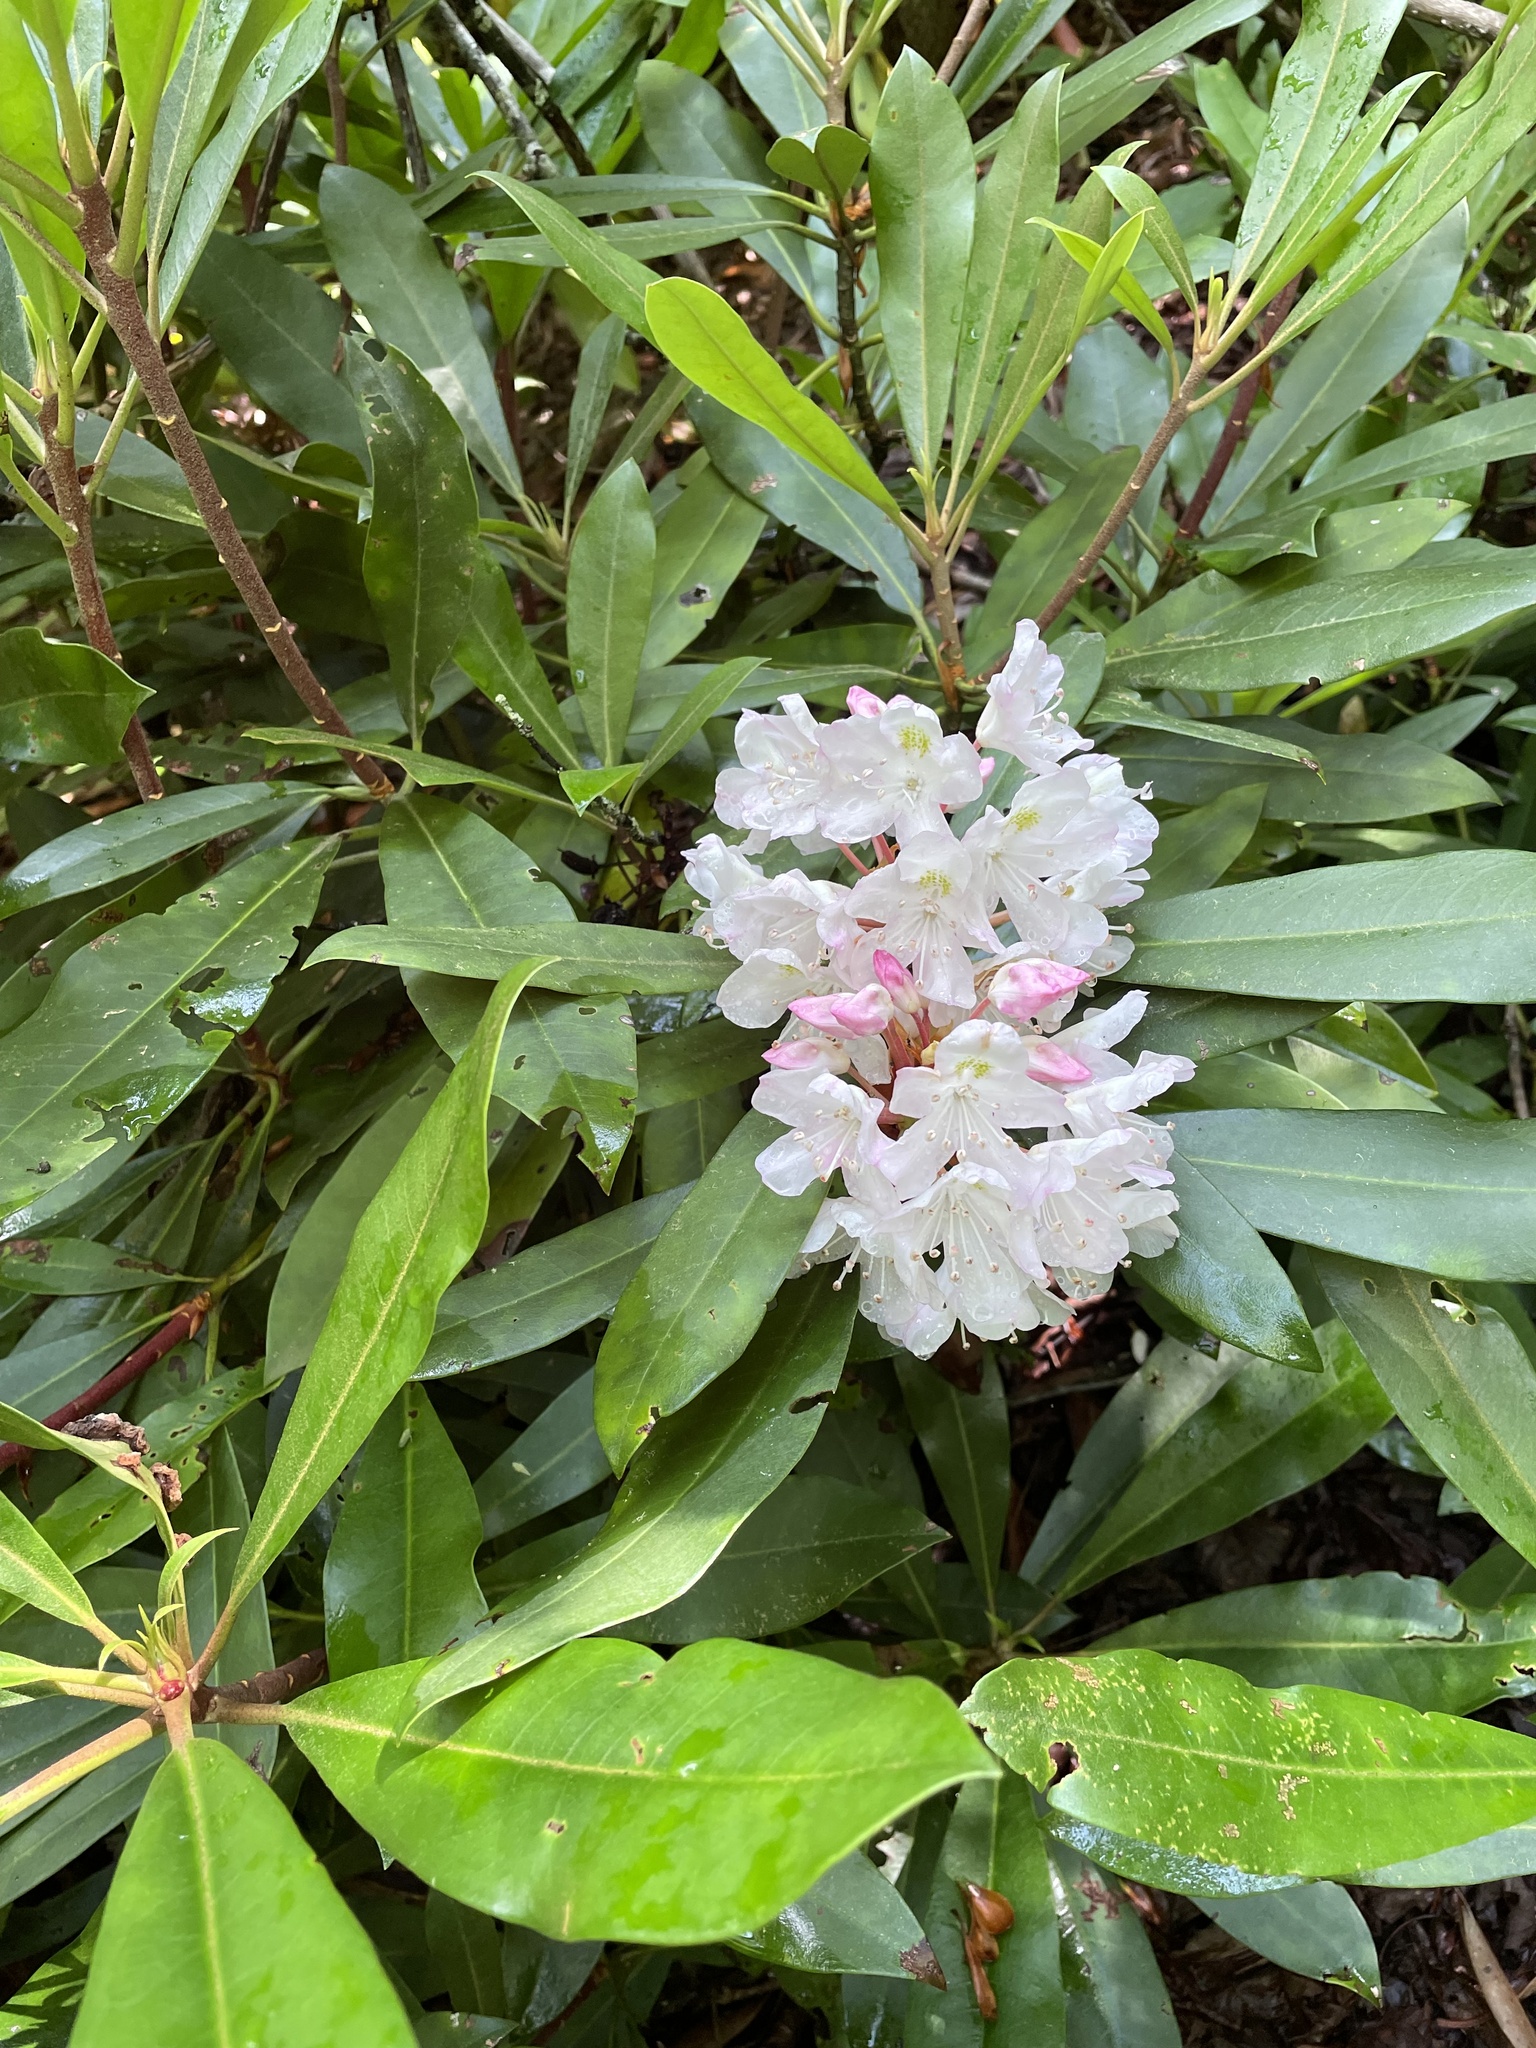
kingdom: Plantae
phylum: Tracheophyta
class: Magnoliopsida
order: Ericales
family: Ericaceae
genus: Rhododendron
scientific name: Rhododendron maximum
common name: Great rhododendron
